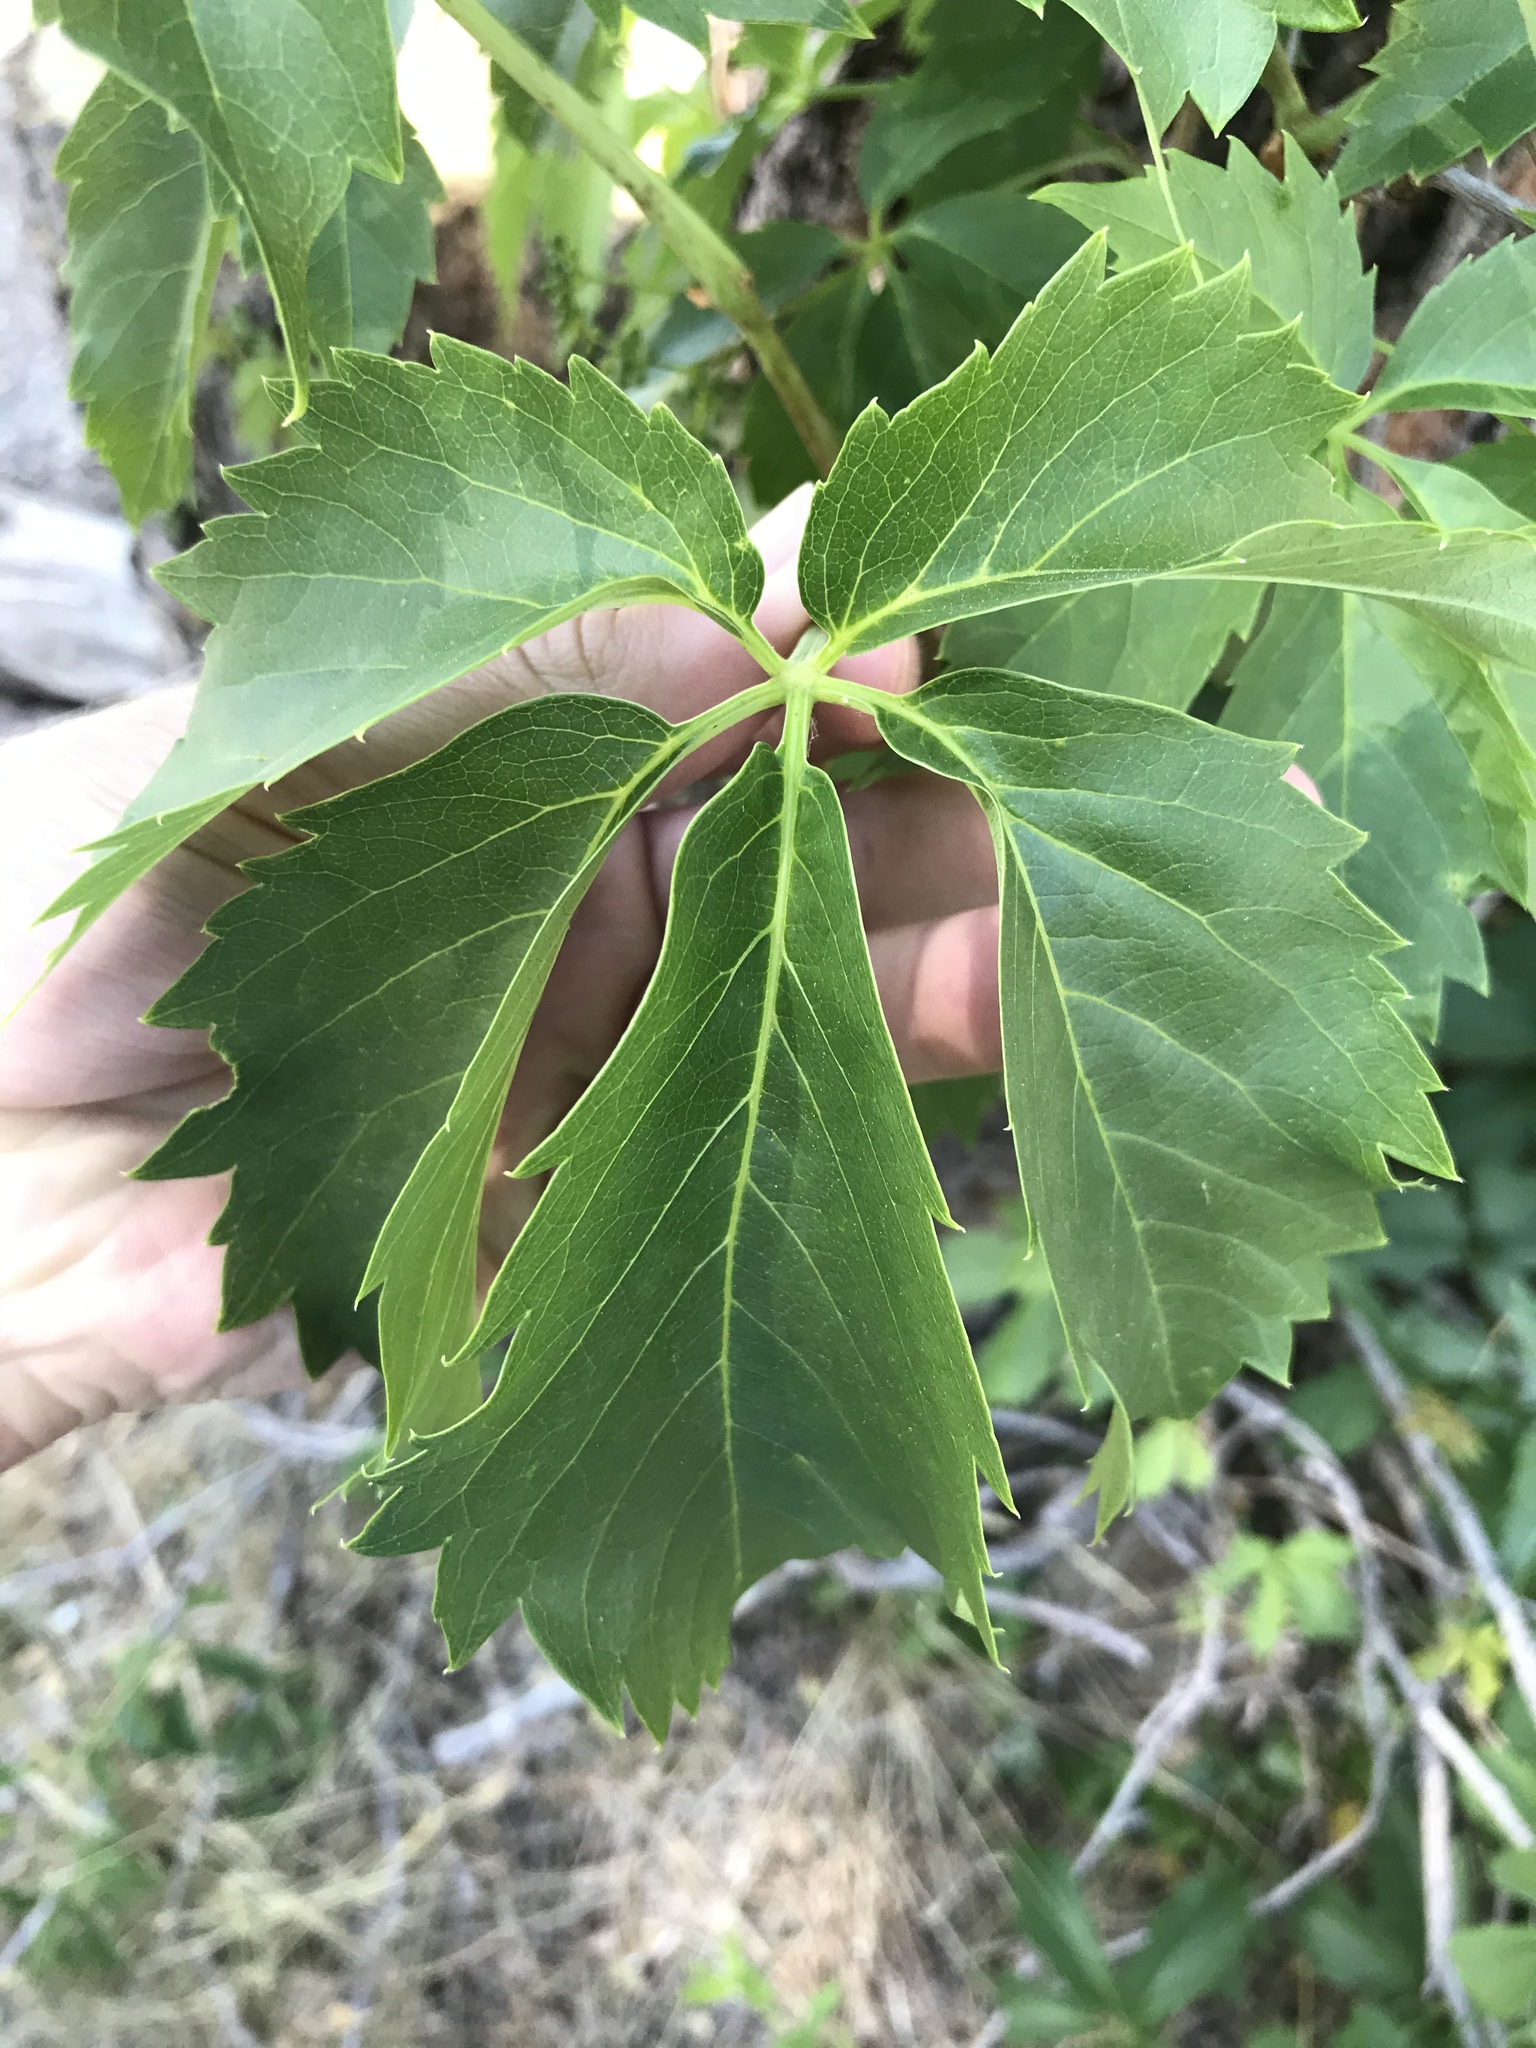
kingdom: Plantae
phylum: Tracheophyta
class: Magnoliopsida
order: Vitales
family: Vitaceae
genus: Parthenocissus
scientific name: Parthenocissus inserta
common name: False virginia-creeper
